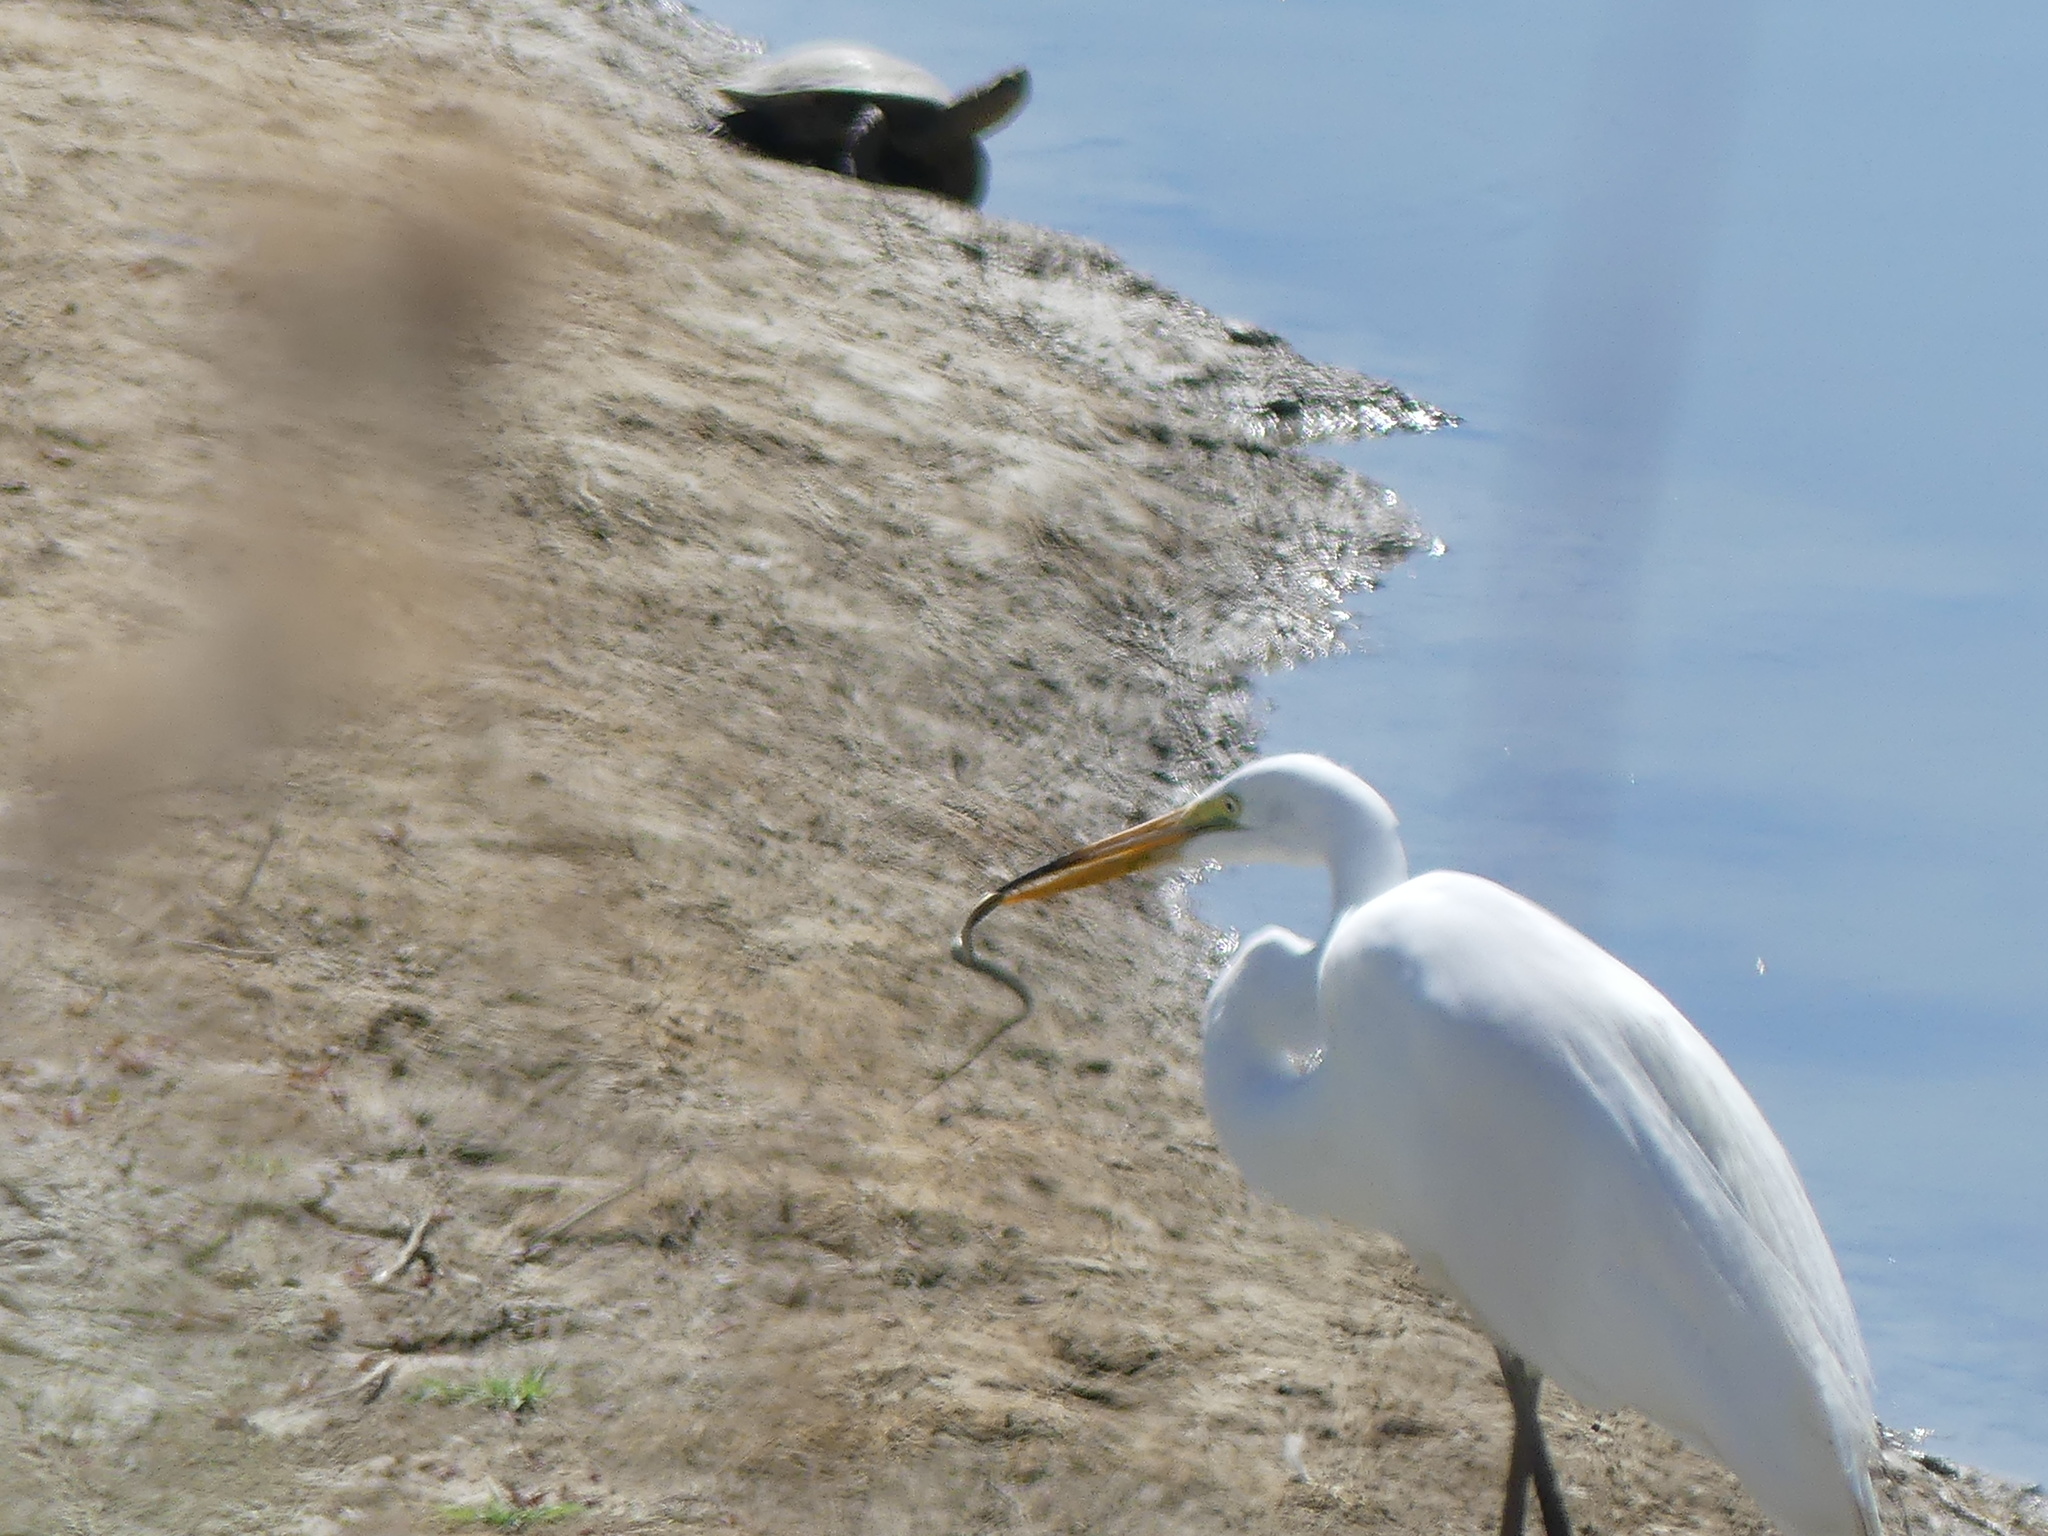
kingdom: Animalia
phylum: Chordata
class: Aves
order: Pelecaniformes
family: Ardeidae
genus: Ardea
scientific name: Ardea alba
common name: Great egret
